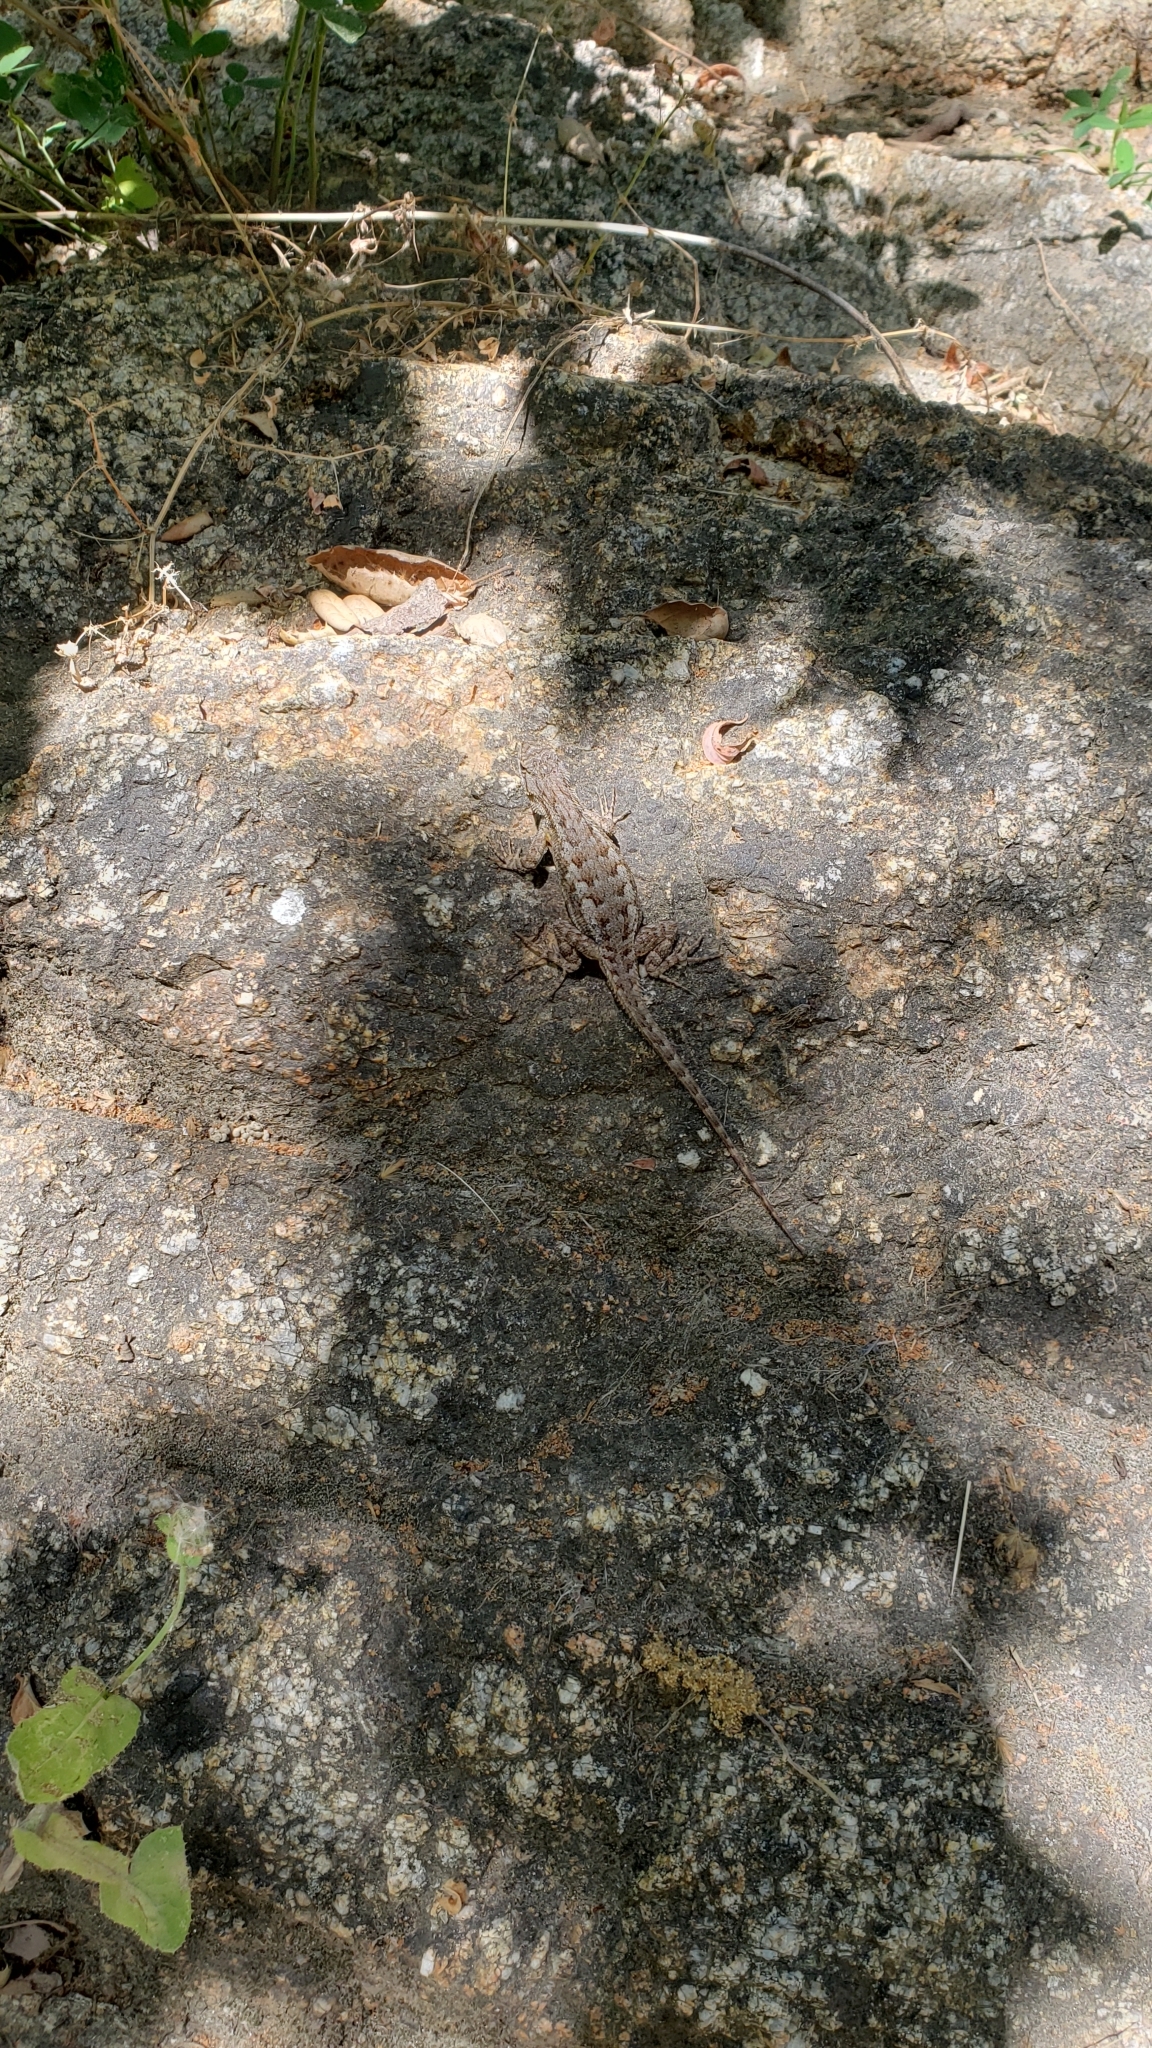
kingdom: Animalia
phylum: Chordata
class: Squamata
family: Phrynosomatidae
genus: Sceloporus
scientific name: Sceloporus occidentalis
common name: Western fence lizard
